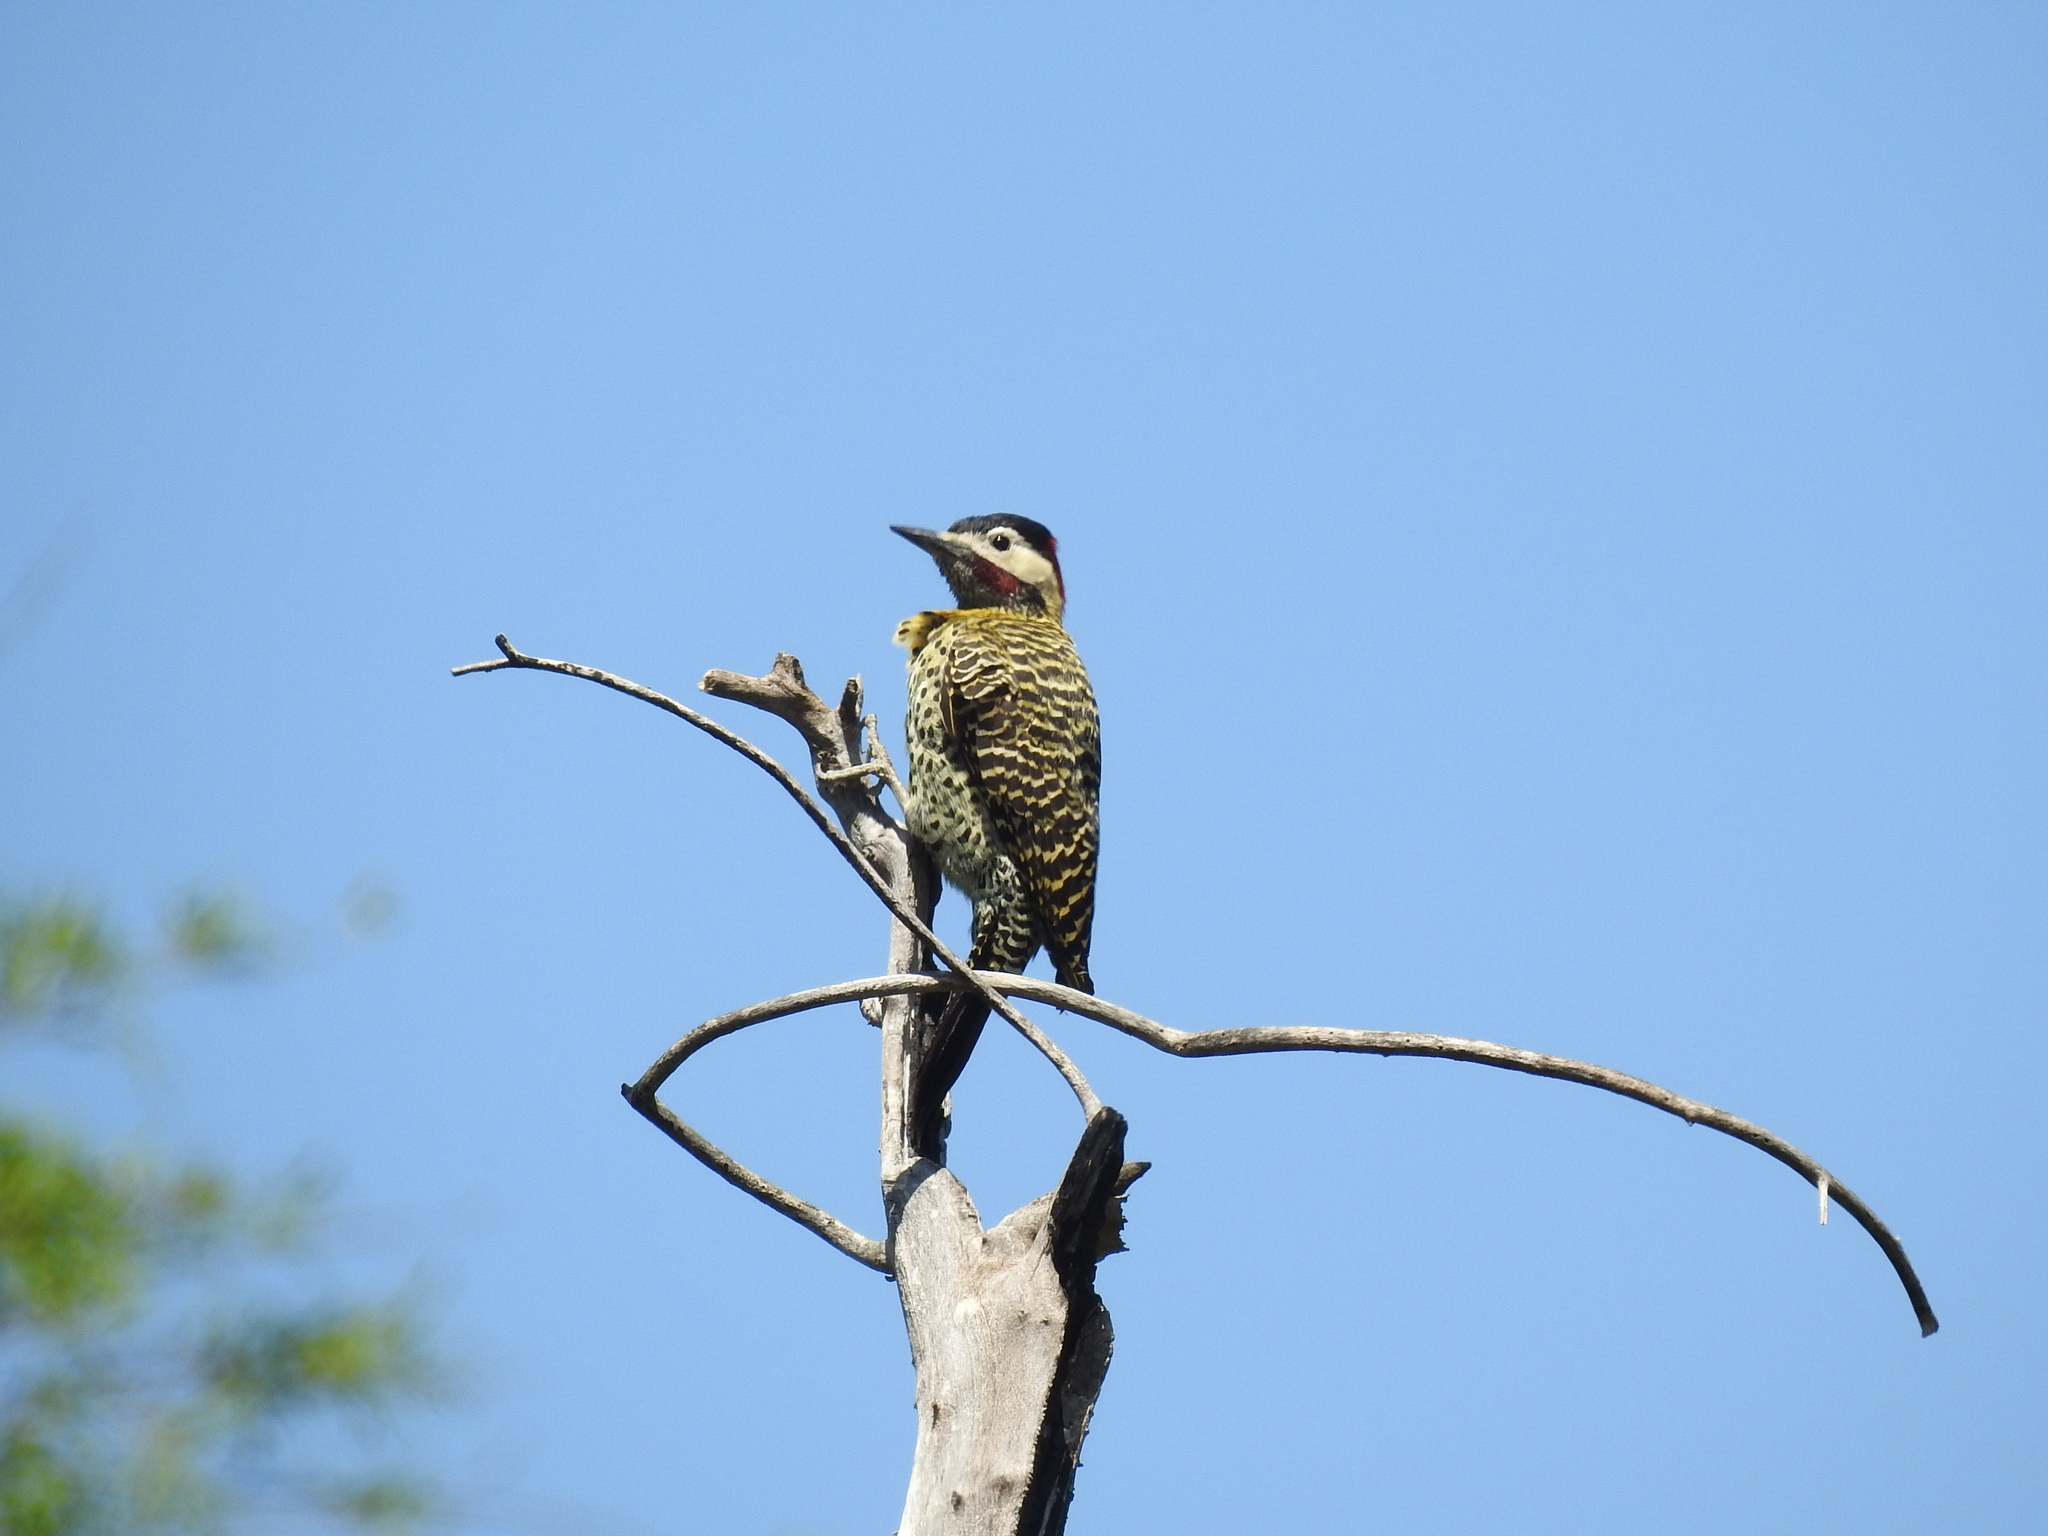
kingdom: Animalia
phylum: Chordata
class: Aves
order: Piciformes
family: Picidae
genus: Colaptes
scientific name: Colaptes melanochloros
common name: Green-barred woodpecker
